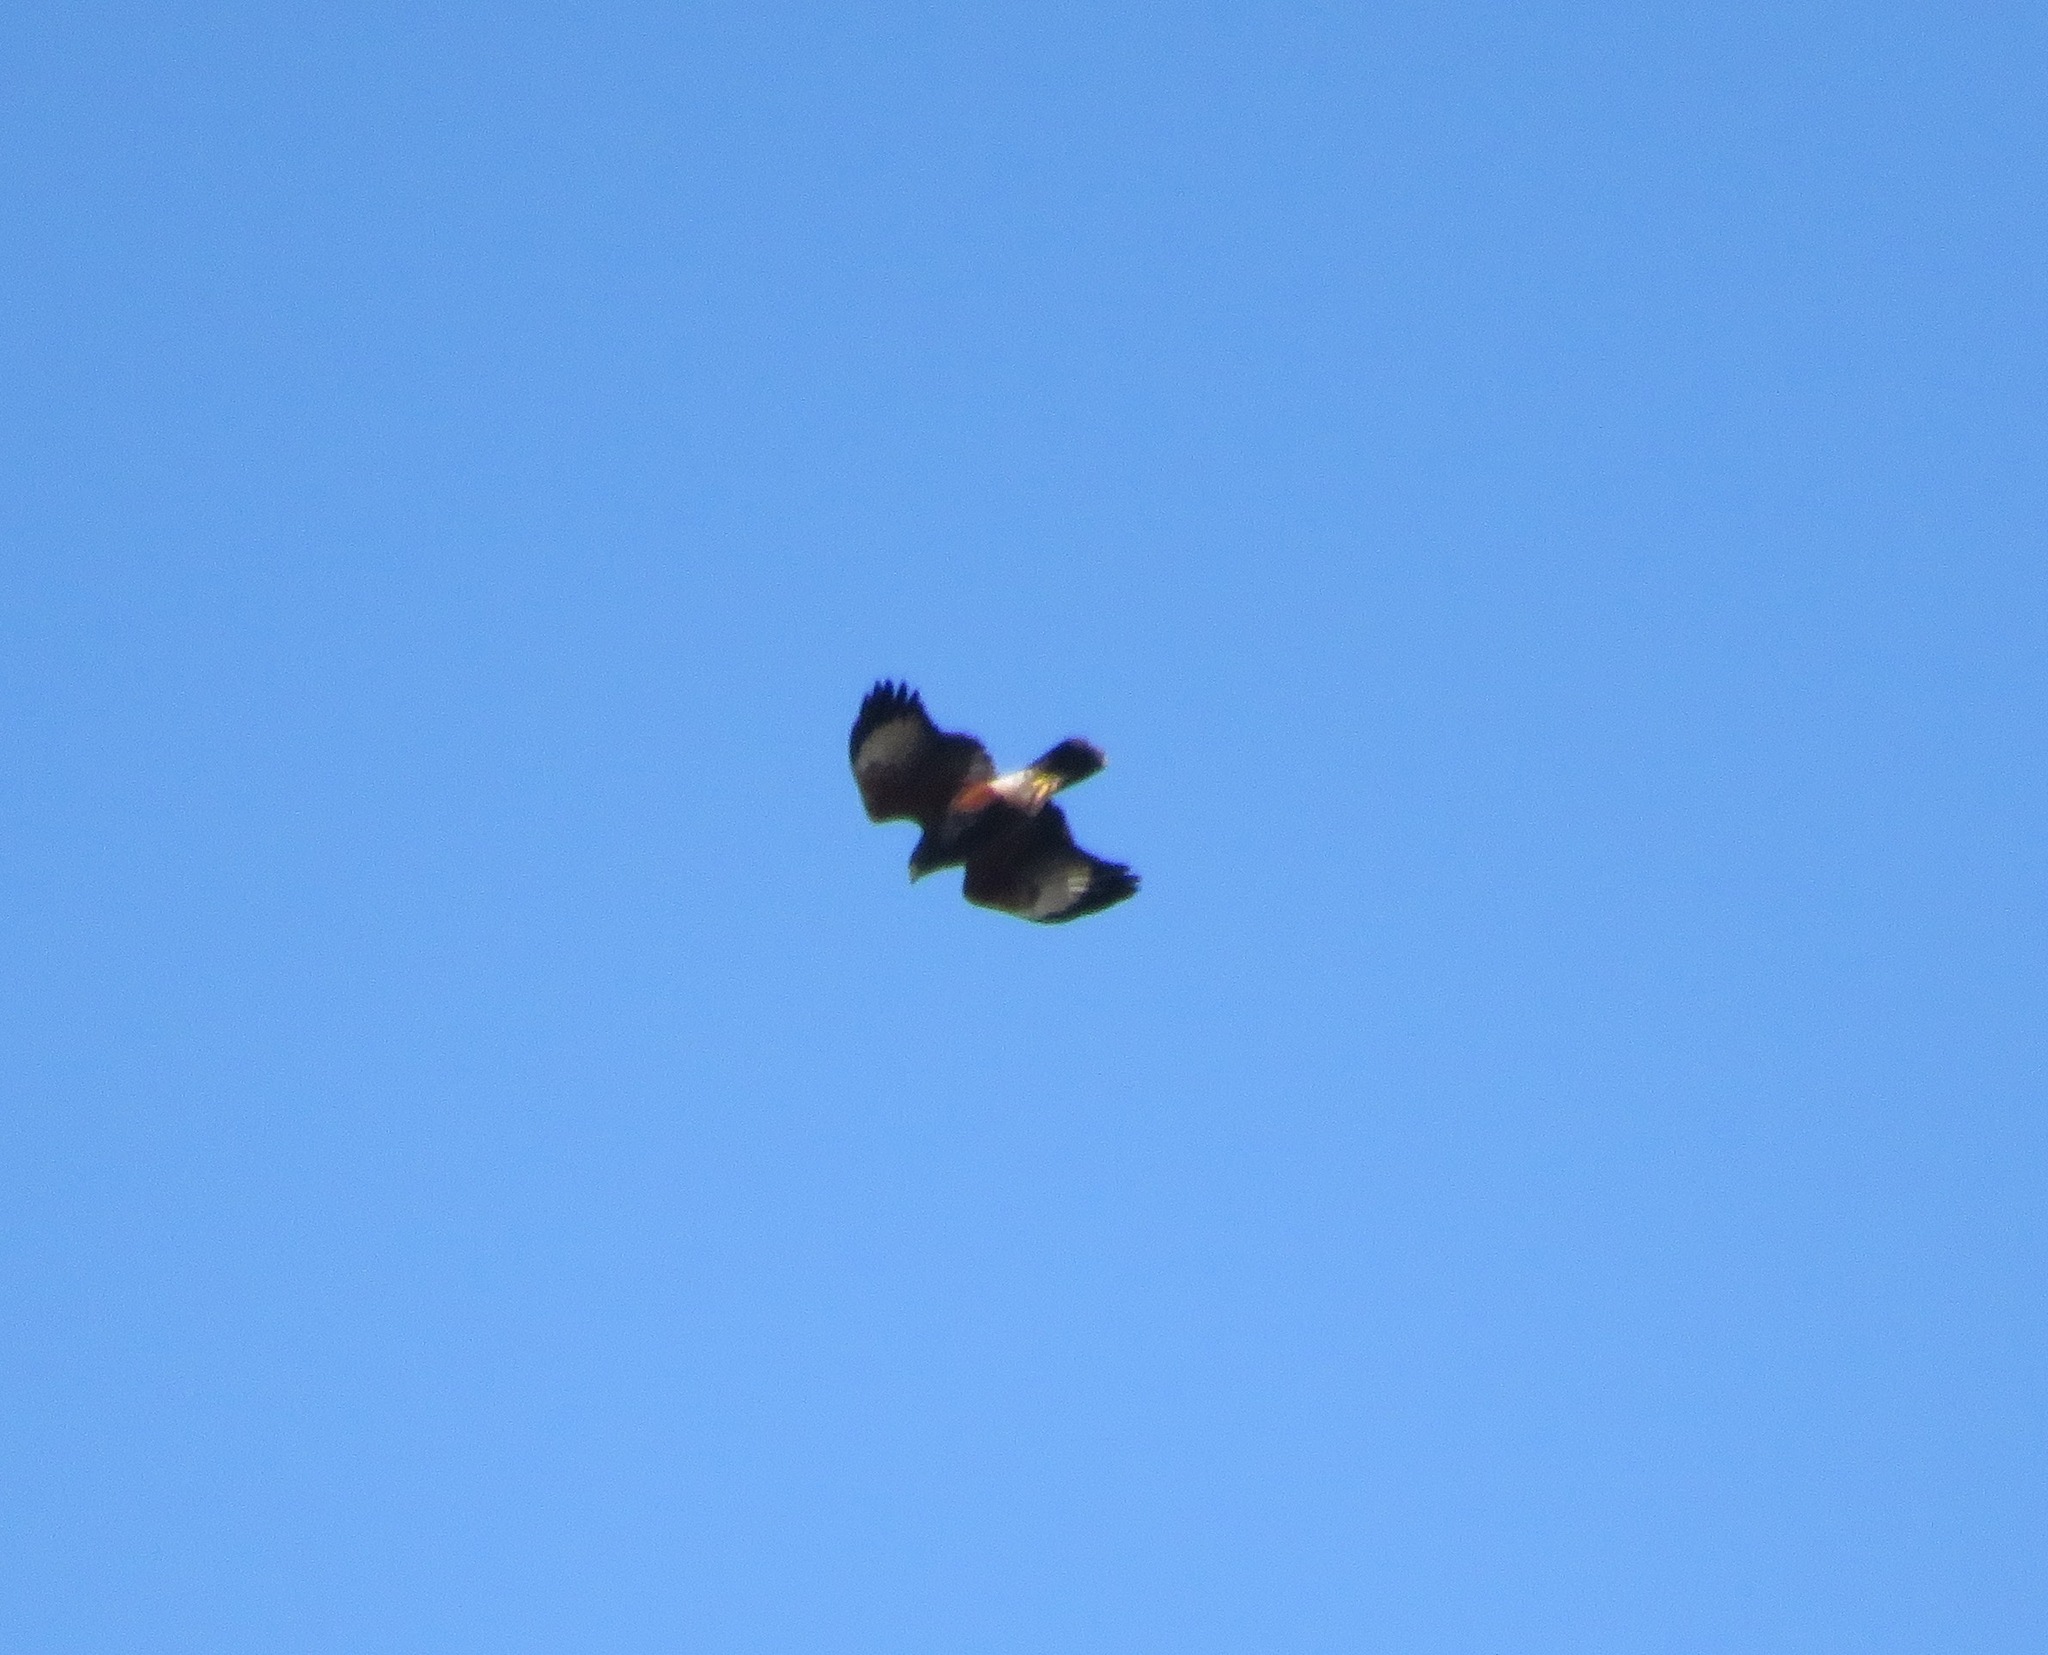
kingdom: Animalia
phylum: Chordata
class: Aves
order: Accipitriformes
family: Accipitridae
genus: Parabuteo
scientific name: Parabuteo unicinctus
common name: Harris's hawk
